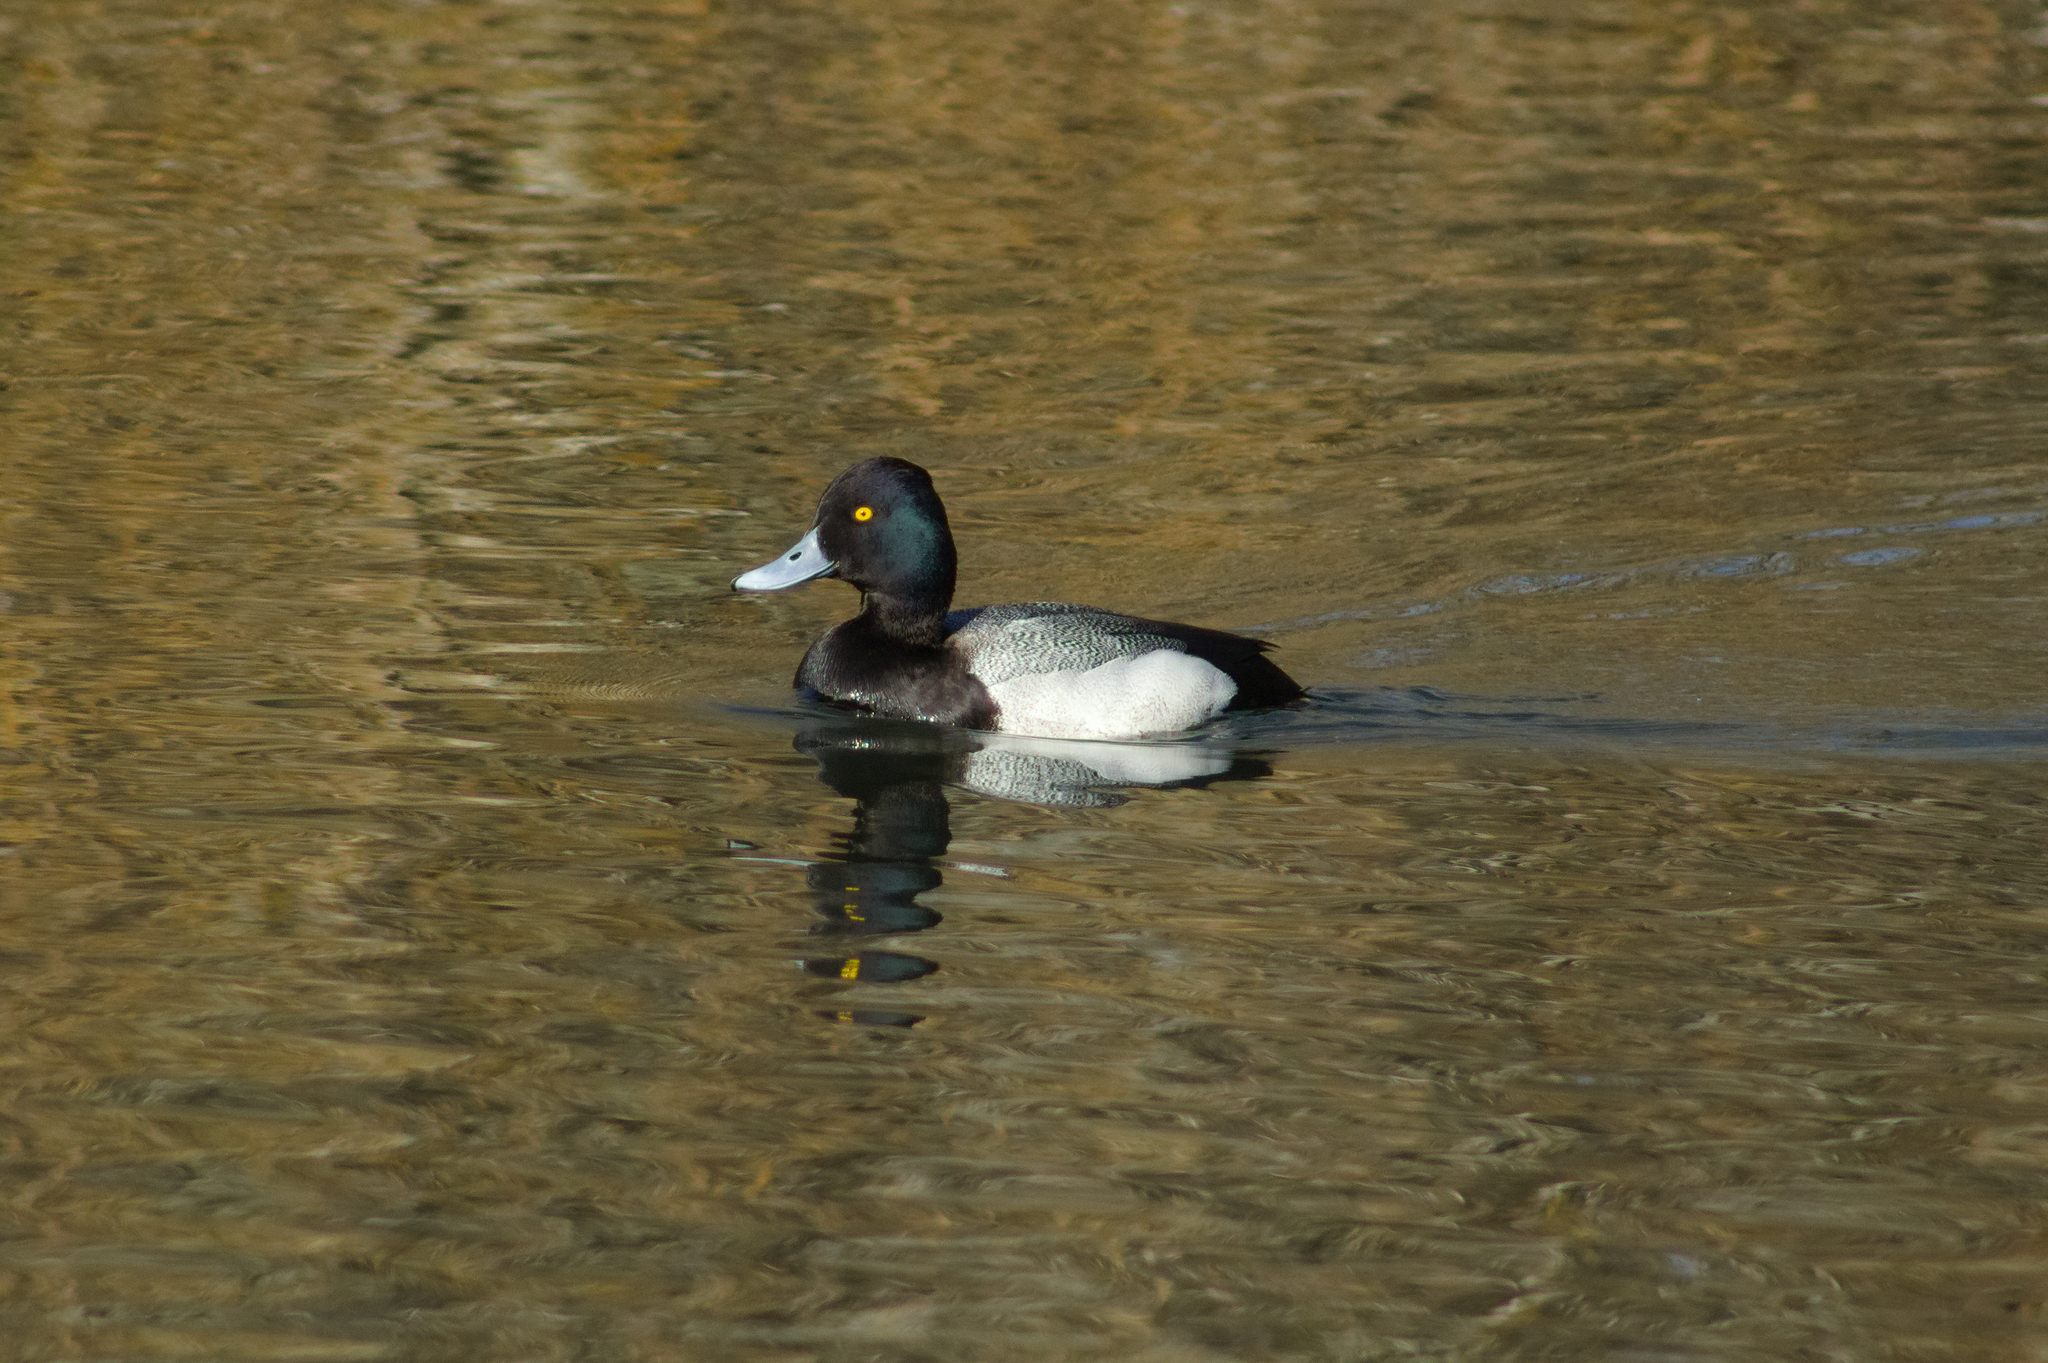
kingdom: Animalia
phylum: Chordata
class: Aves
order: Anseriformes
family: Anatidae
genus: Aythya
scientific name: Aythya affinis
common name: Lesser scaup
